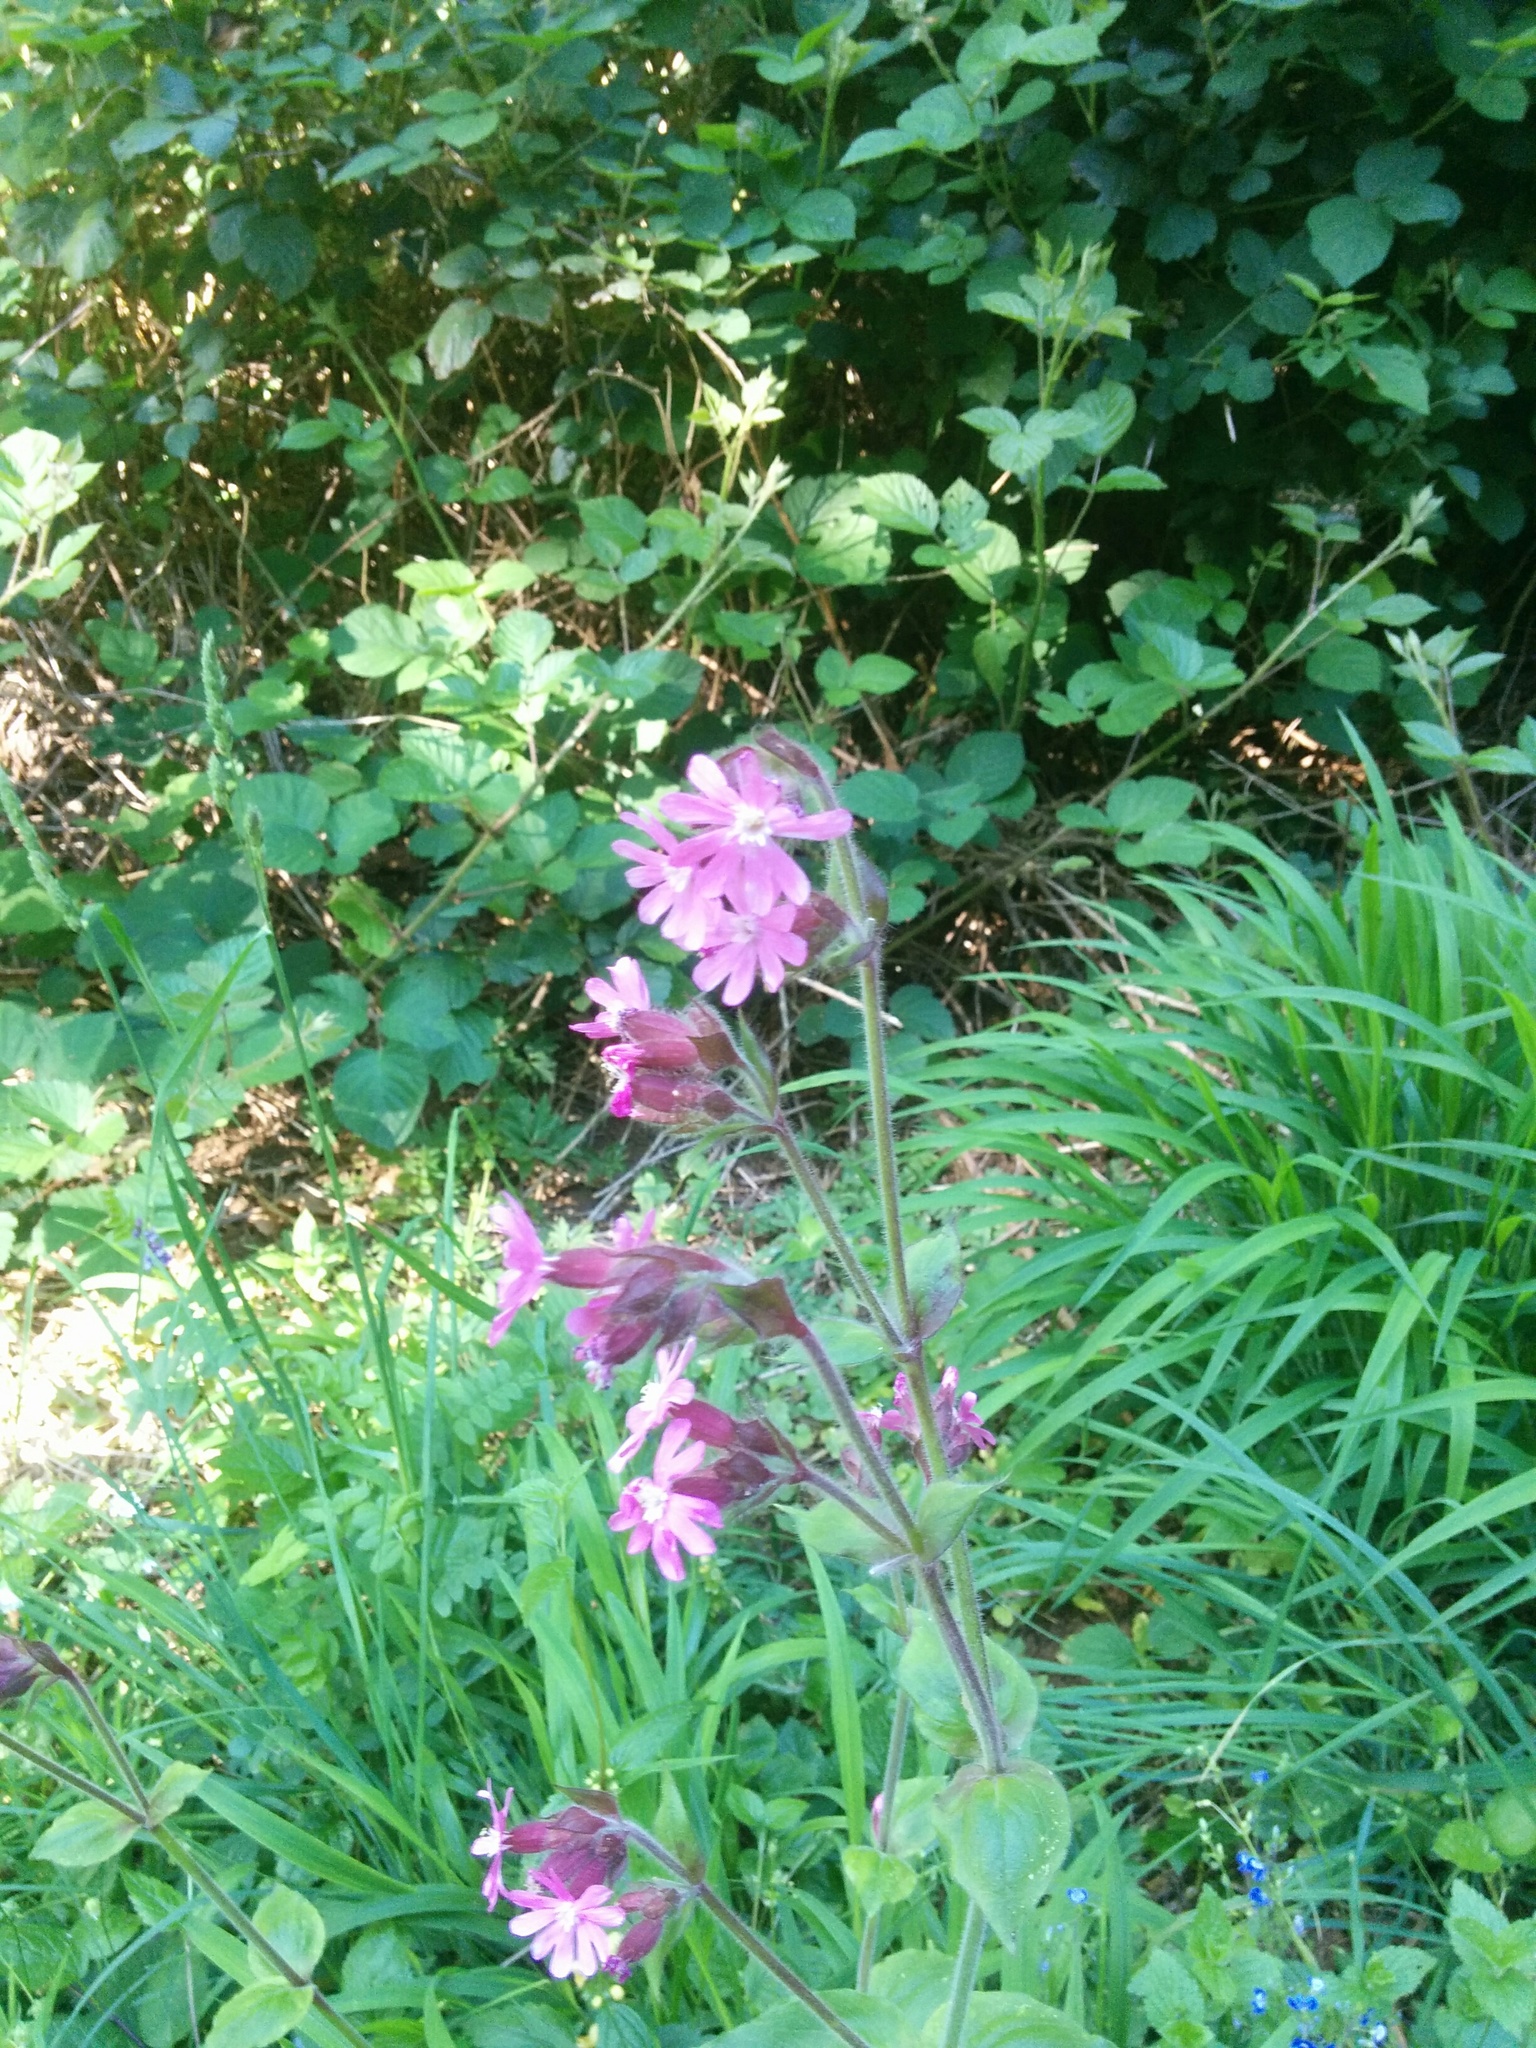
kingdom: Plantae
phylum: Tracheophyta
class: Magnoliopsida
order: Caryophyllales
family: Caryophyllaceae
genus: Silene
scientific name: Silene dioica
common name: Red campion
